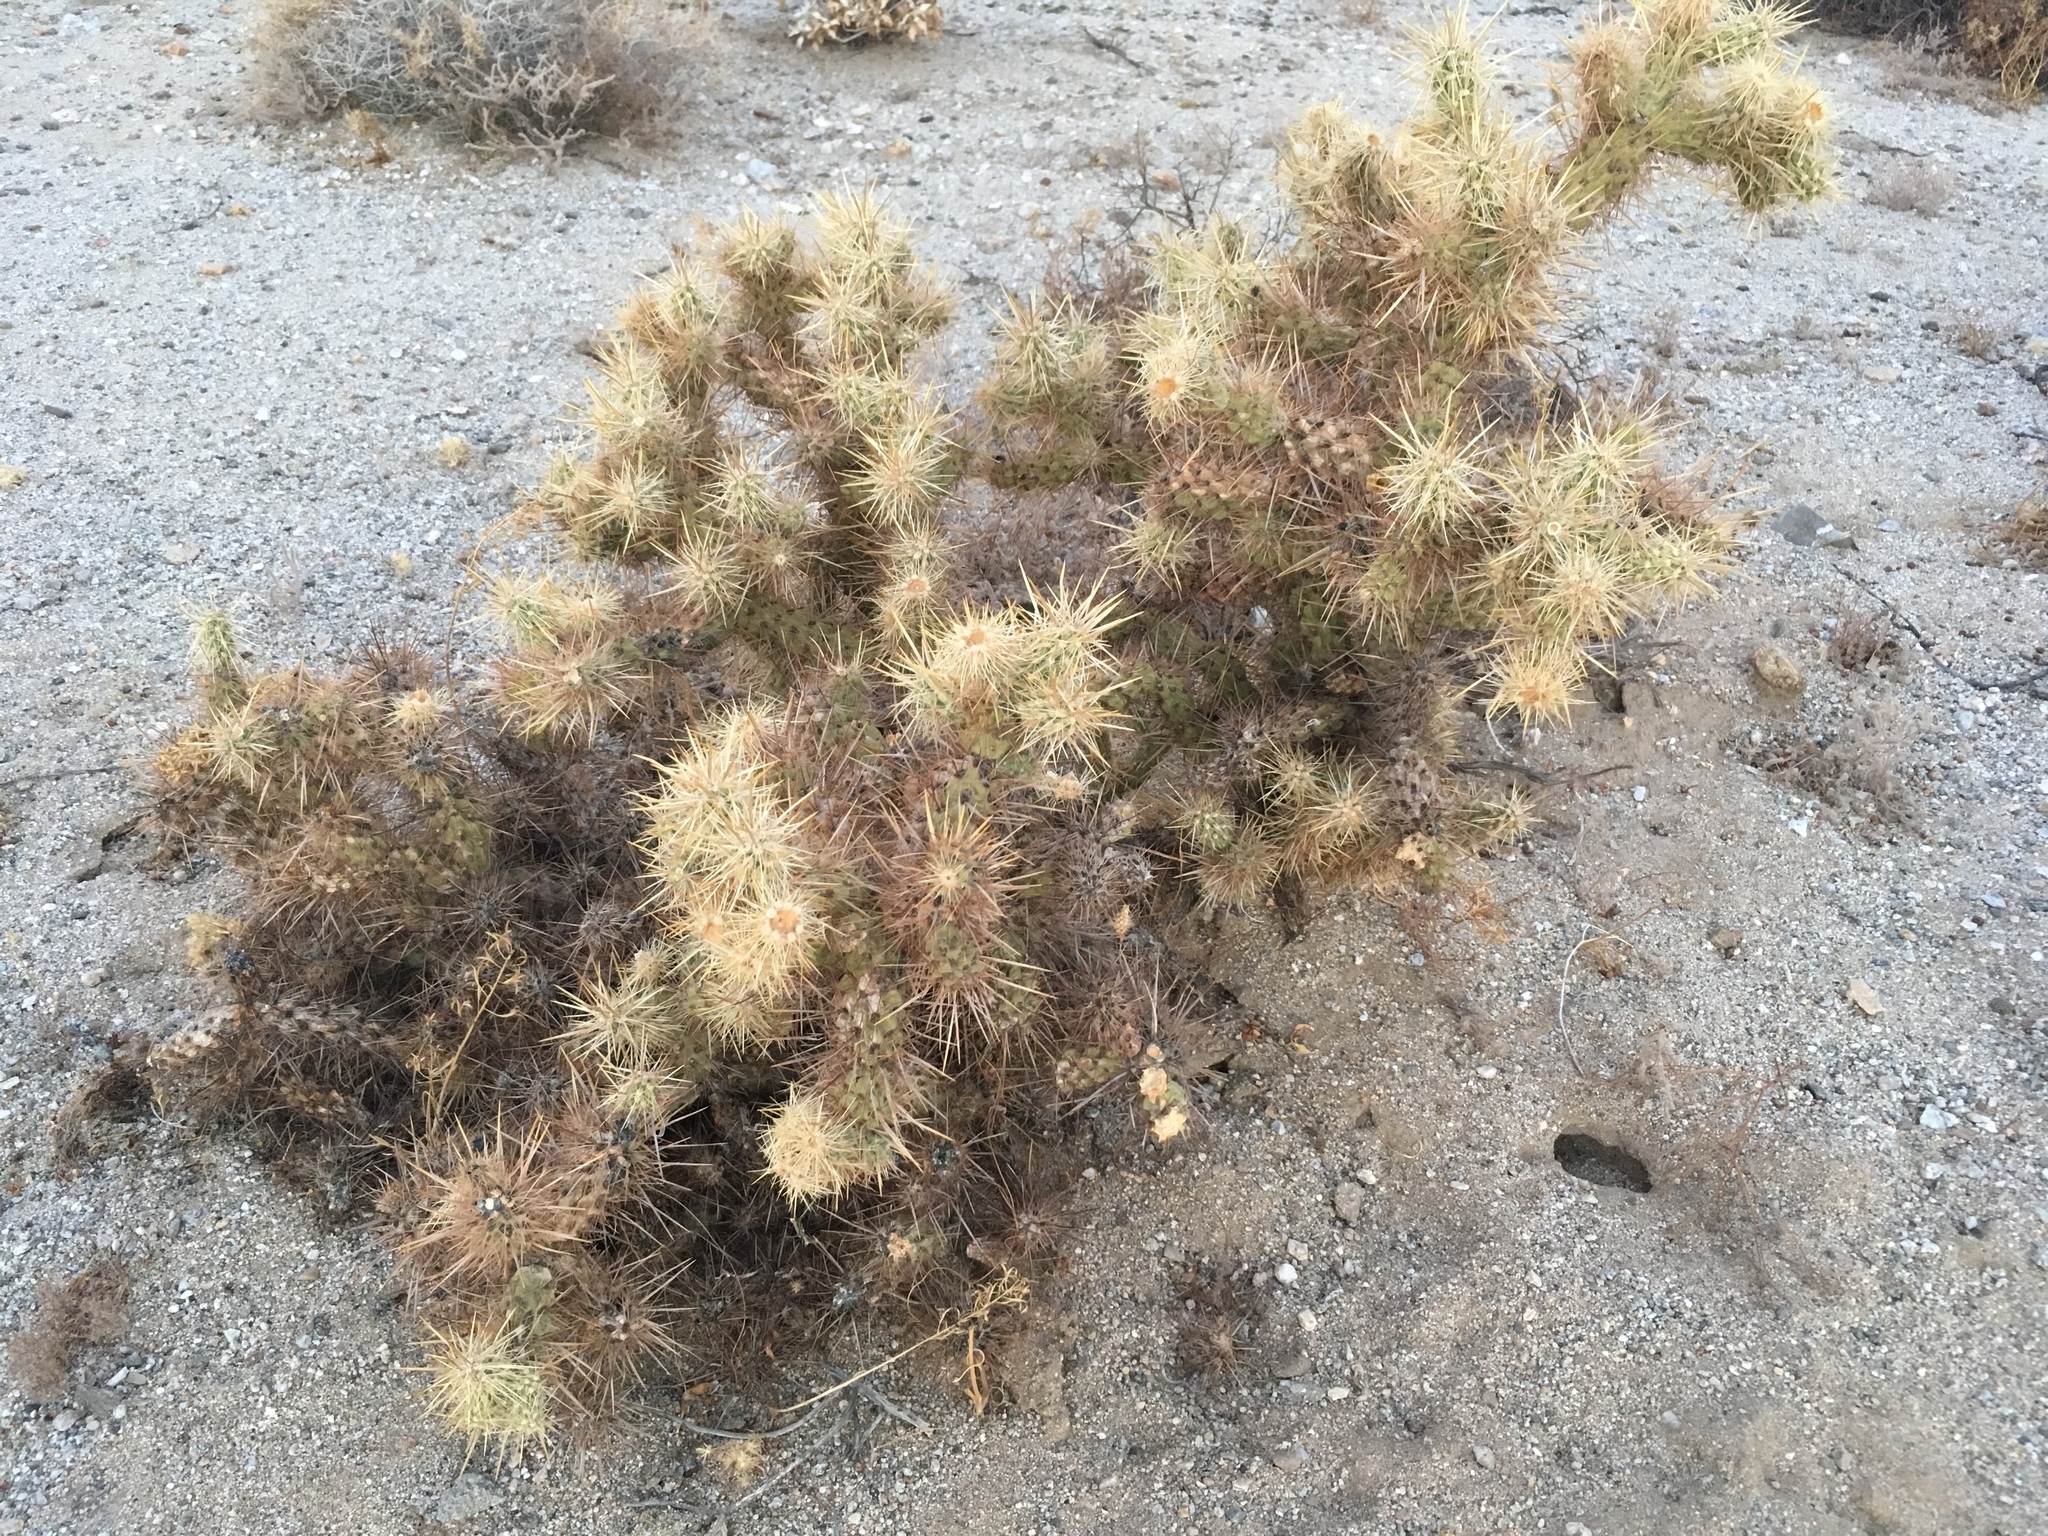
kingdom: Plantae
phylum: Tracheophyta
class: Magnoliopsida
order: Caryophyllales
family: Cactaceae
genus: Cylindropuntia
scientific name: Cylindropuntia echinocarpa
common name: Ground cholla
